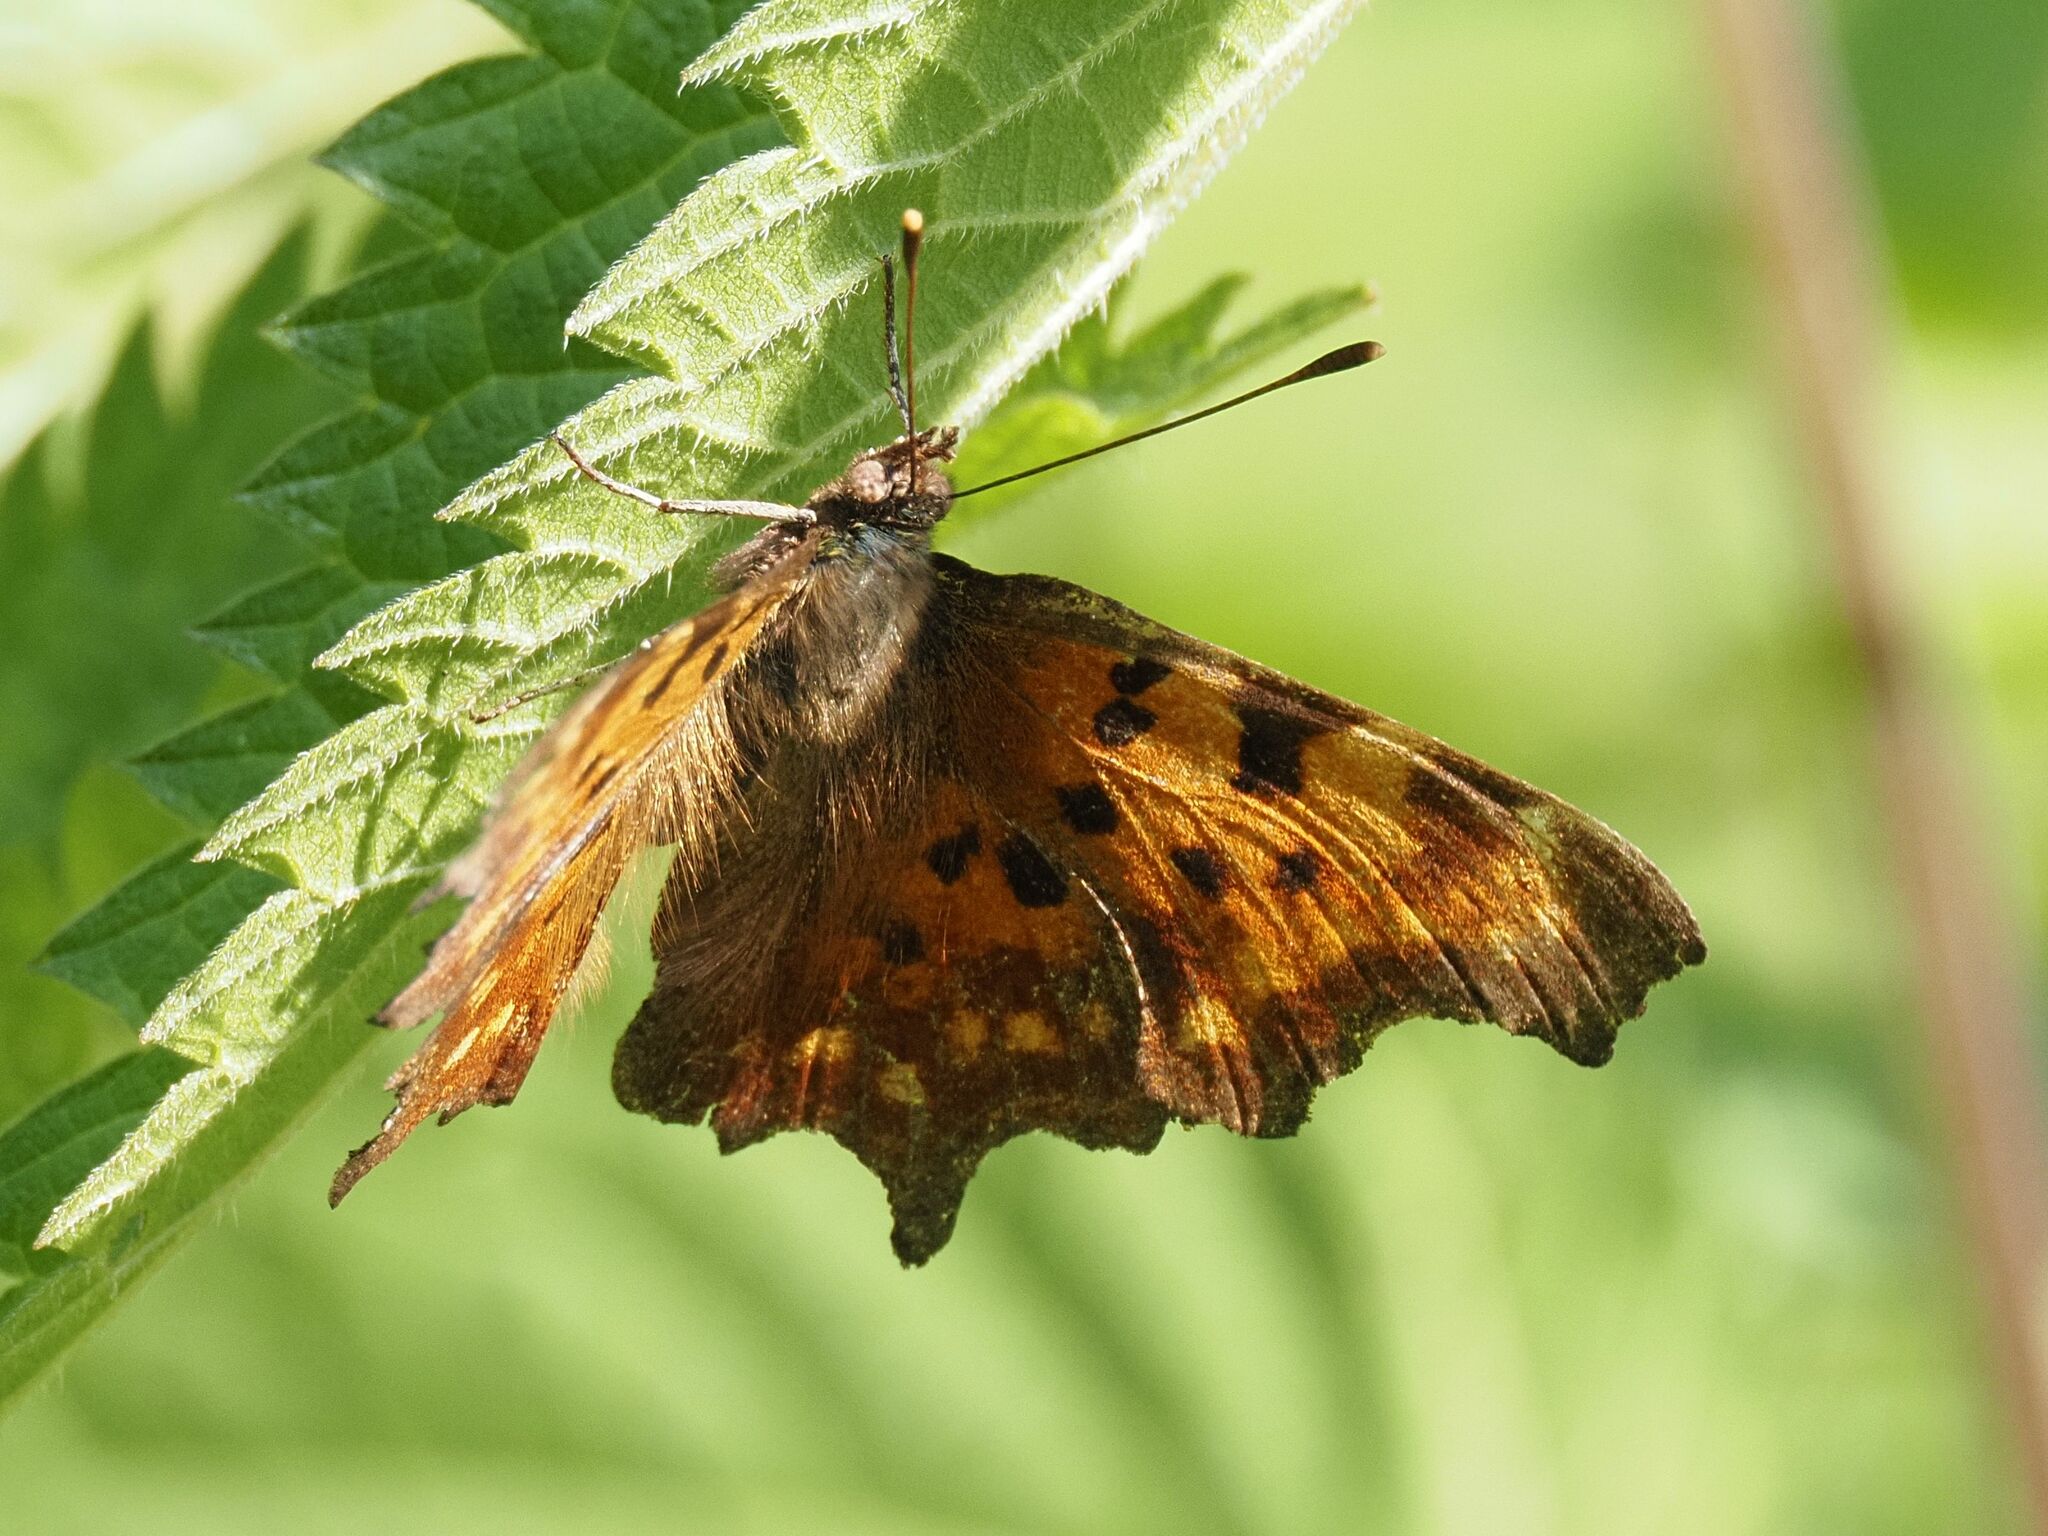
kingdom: Animalia
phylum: Arthropoda
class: Insecta
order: Lepidoptera
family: Nymphalidae
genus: Polygonia
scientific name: Polygonia c-album
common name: Comma
